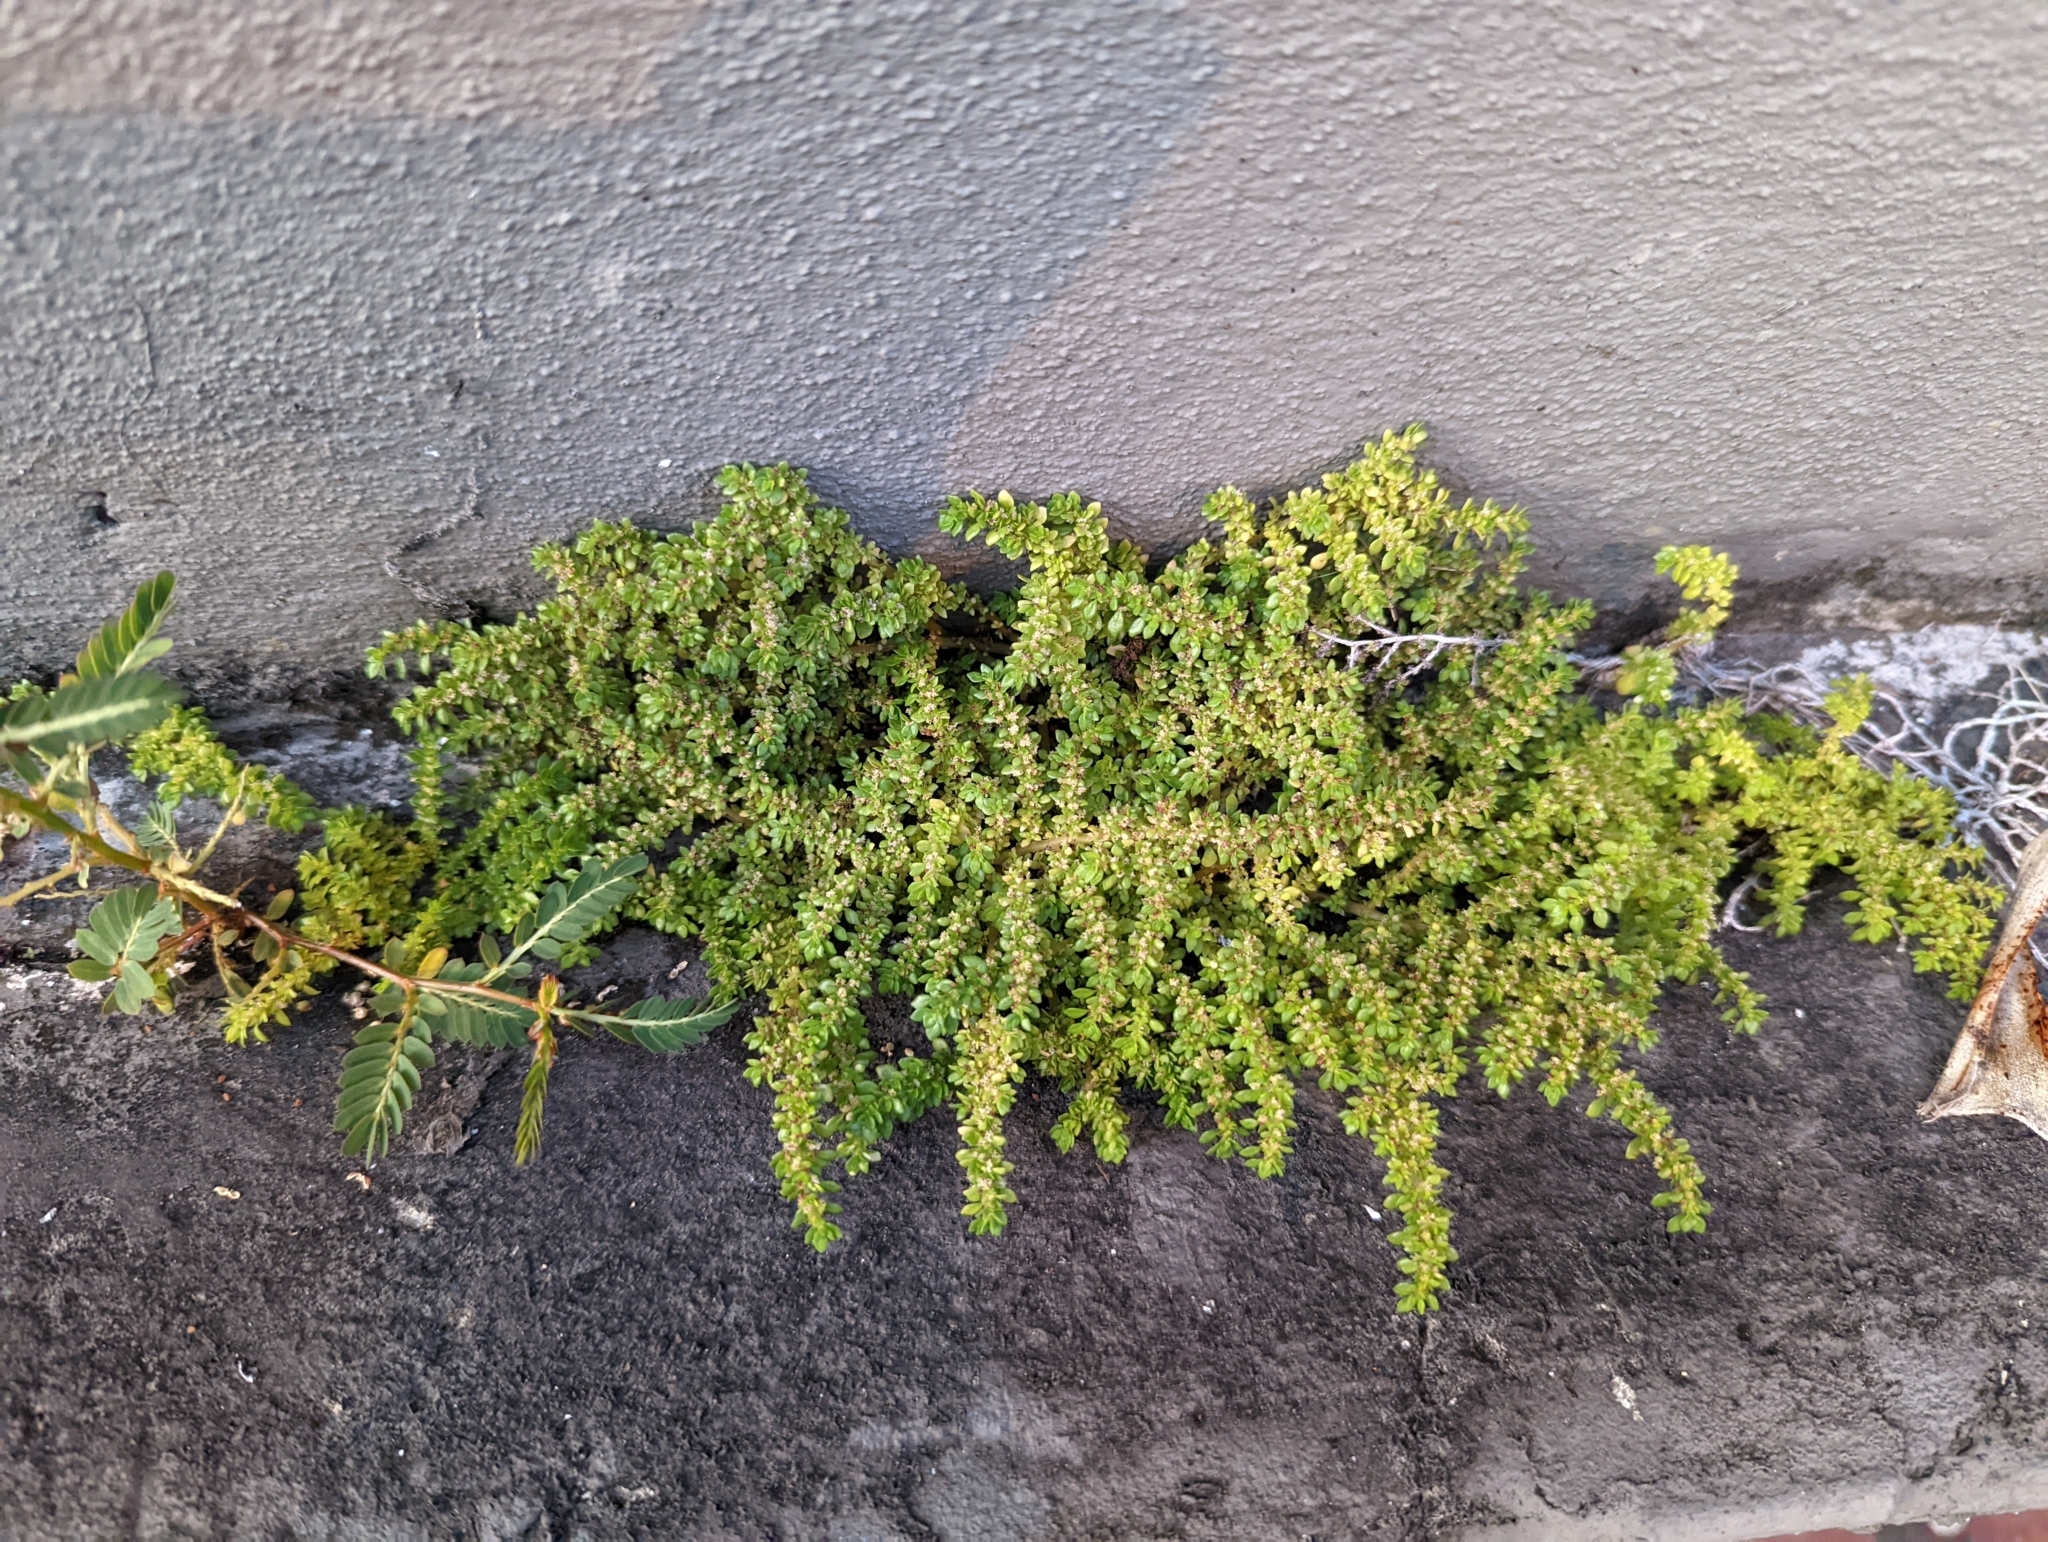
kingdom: Plantae
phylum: Tracheophyta
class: Magnoliopsida
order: Rosales
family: Urticaceae
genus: Pilea
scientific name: Pilea microphylla
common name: Artillery-plant
